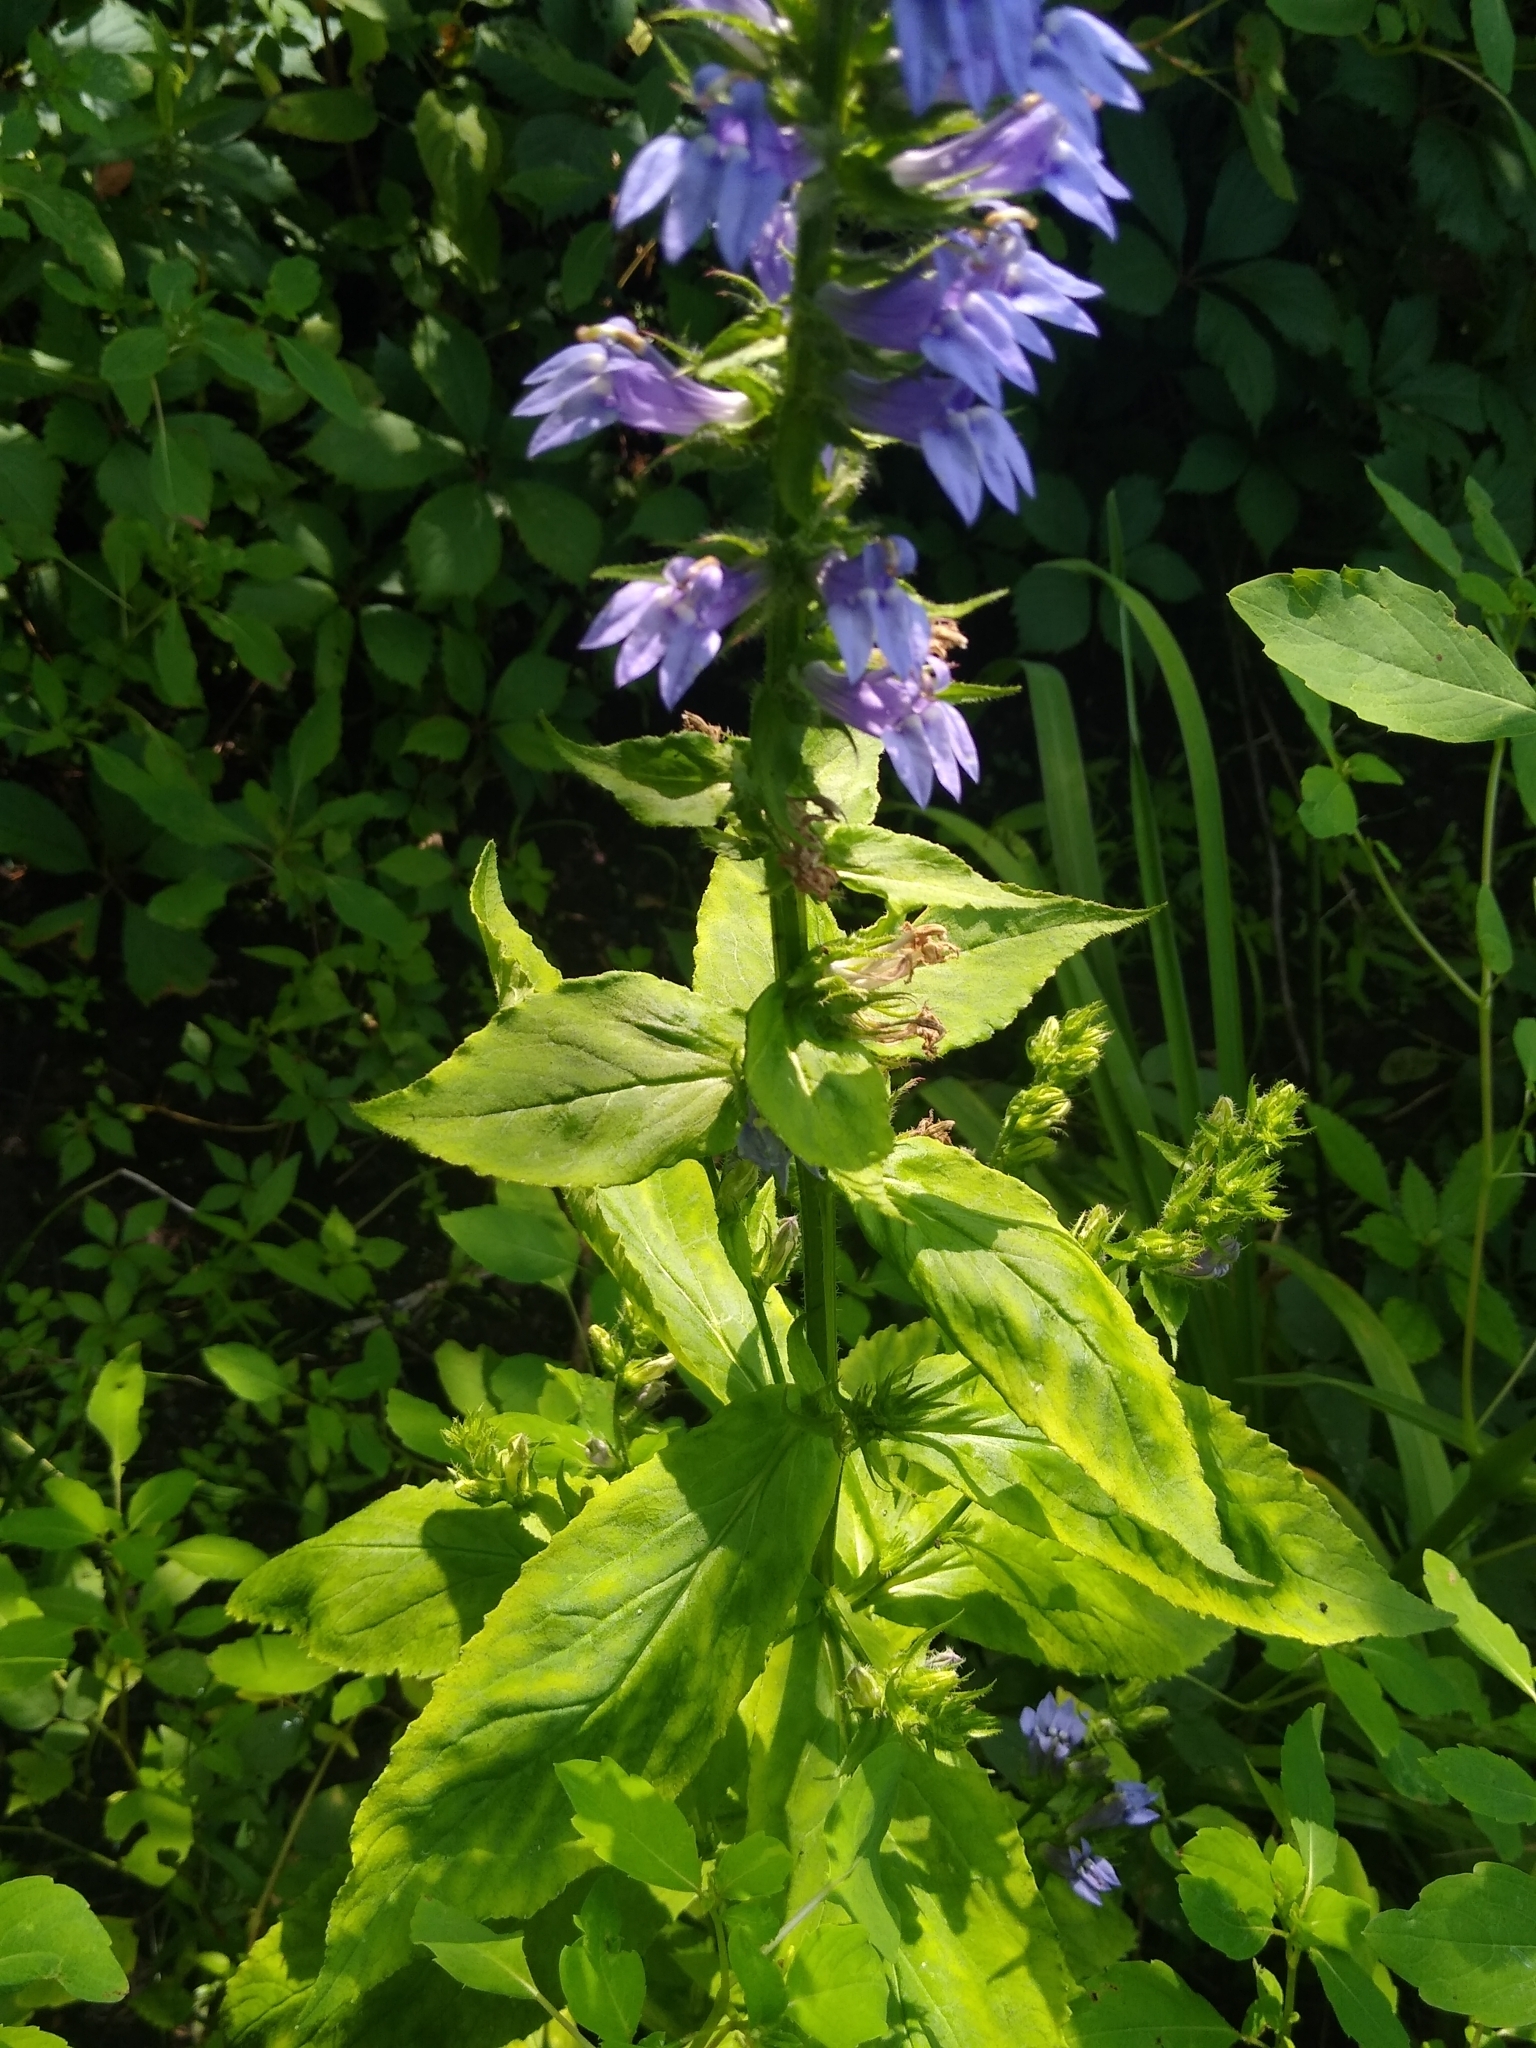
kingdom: Plantae
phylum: Tracheophyta
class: Magnoliopsida
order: Asterales
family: Campanulaceae
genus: Lobelia
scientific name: Lobelia siphilitica
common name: Great lobelia
